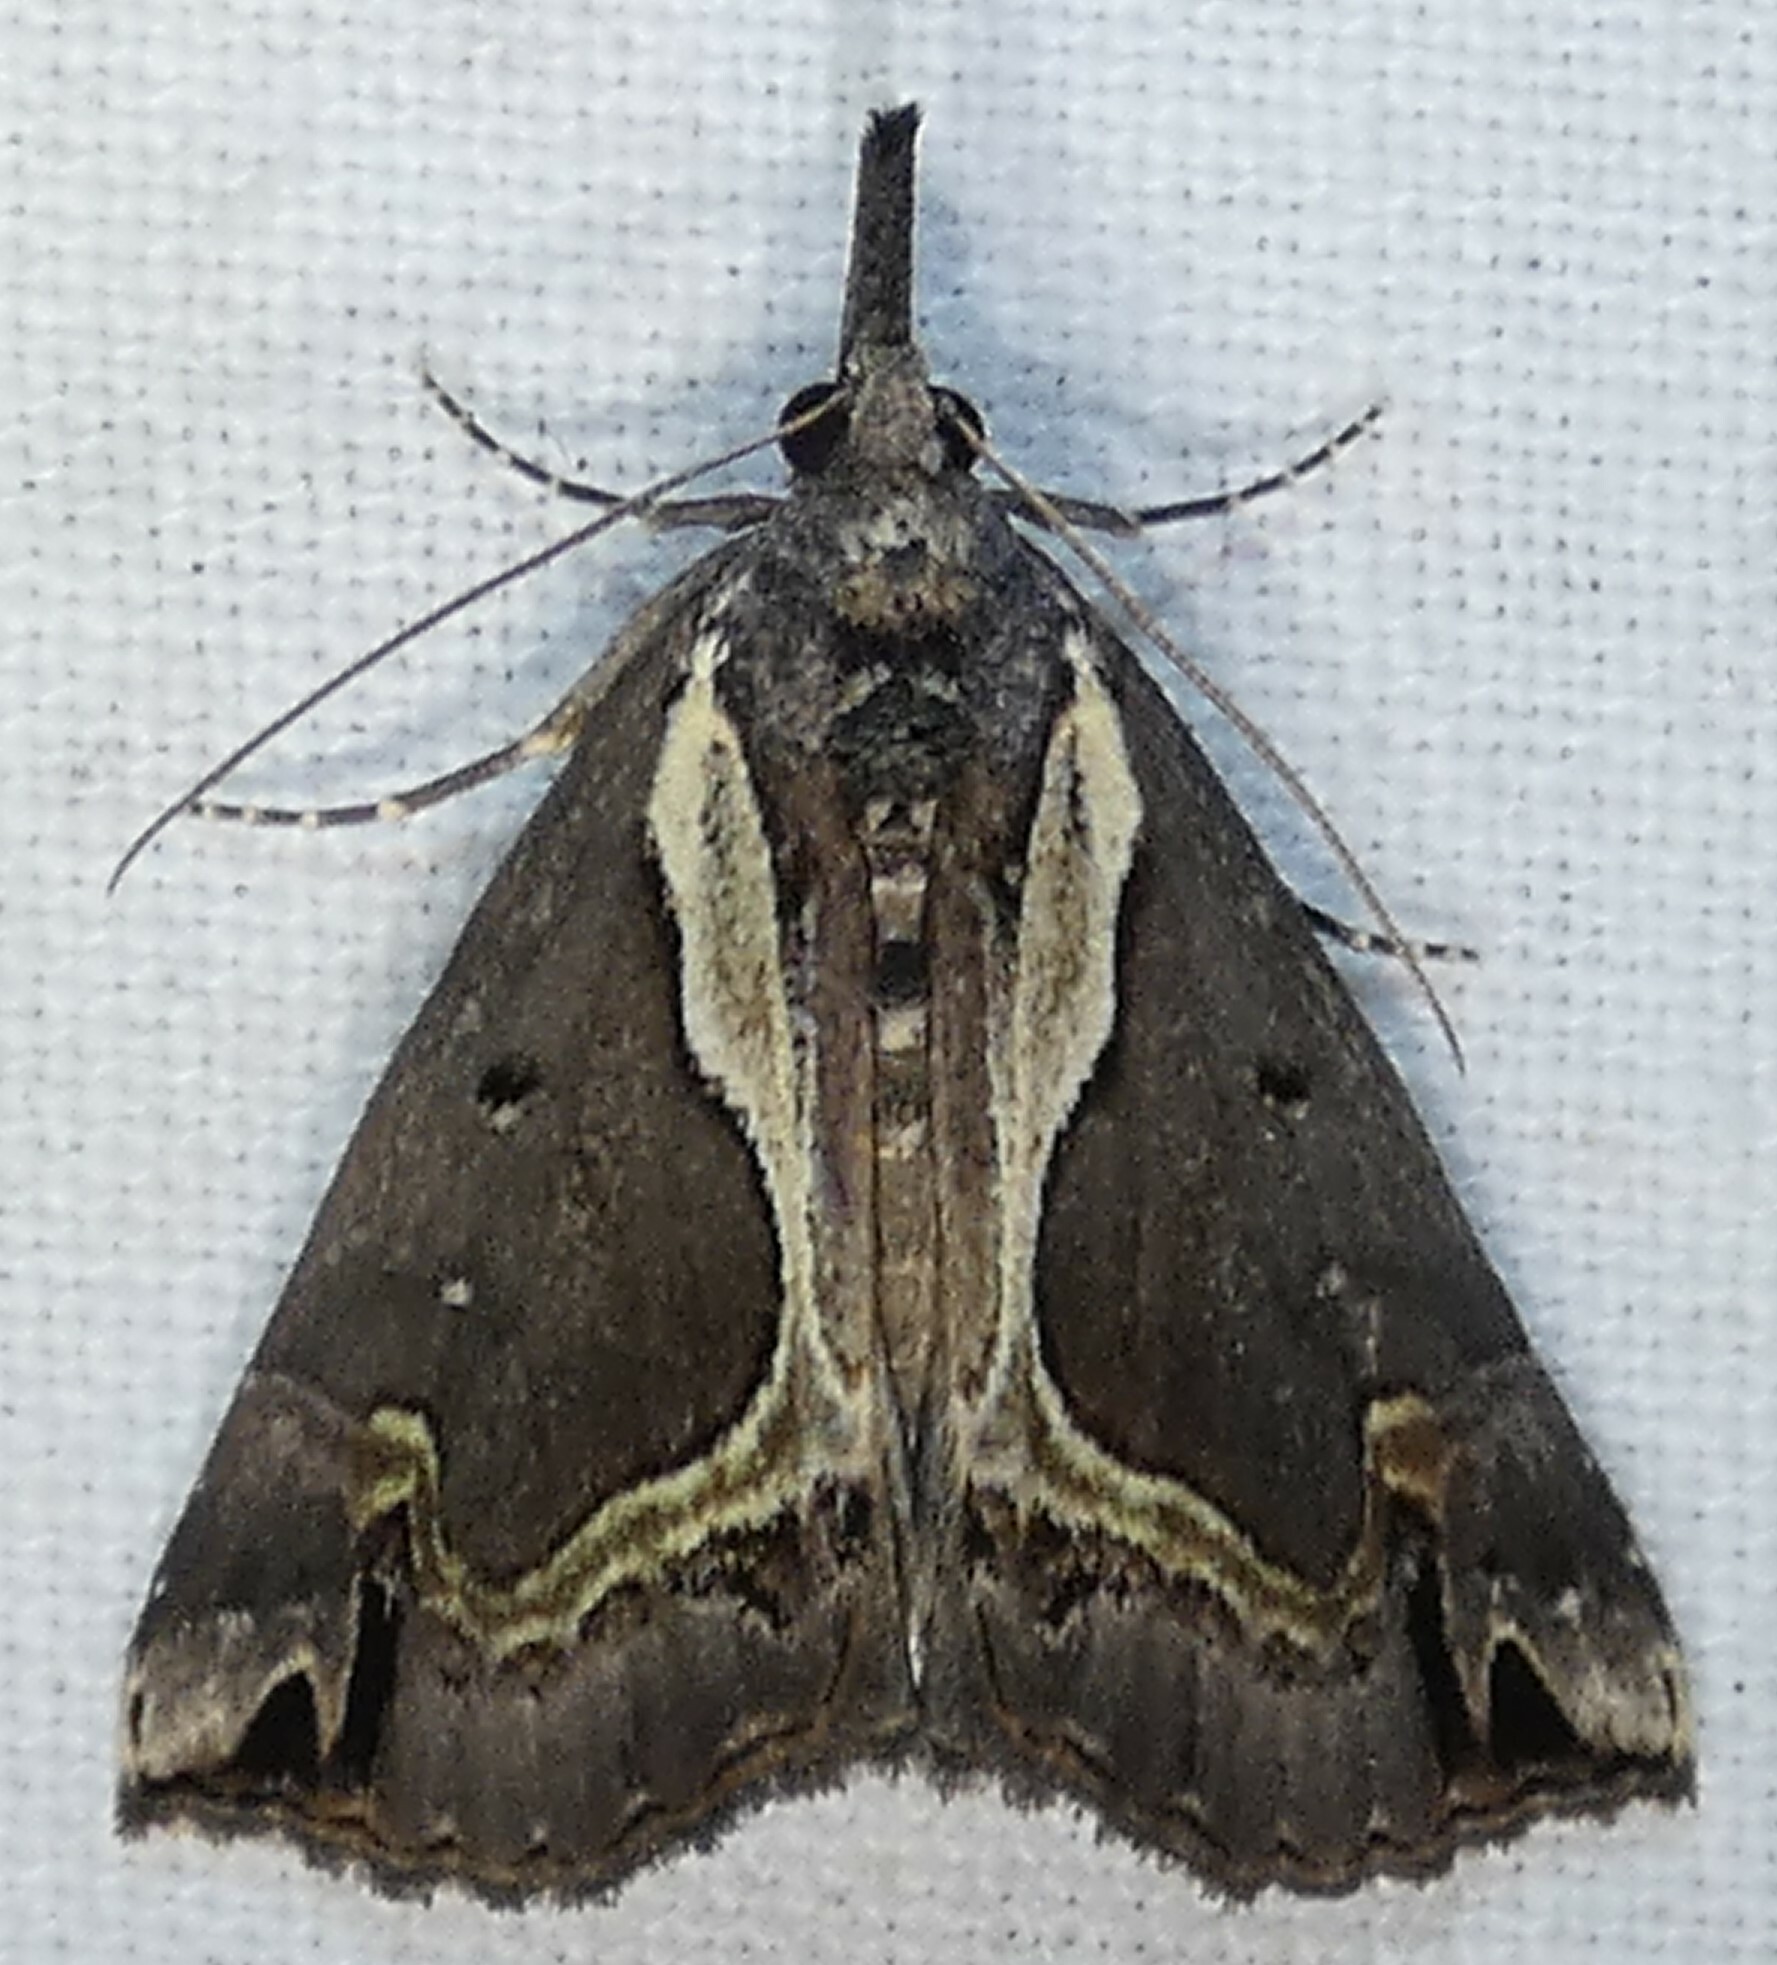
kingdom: Animalia
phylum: Arthropoda
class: Insecta
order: Lepidoptera
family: Erebidae
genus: Hypena
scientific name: Hypena ramstadtii
